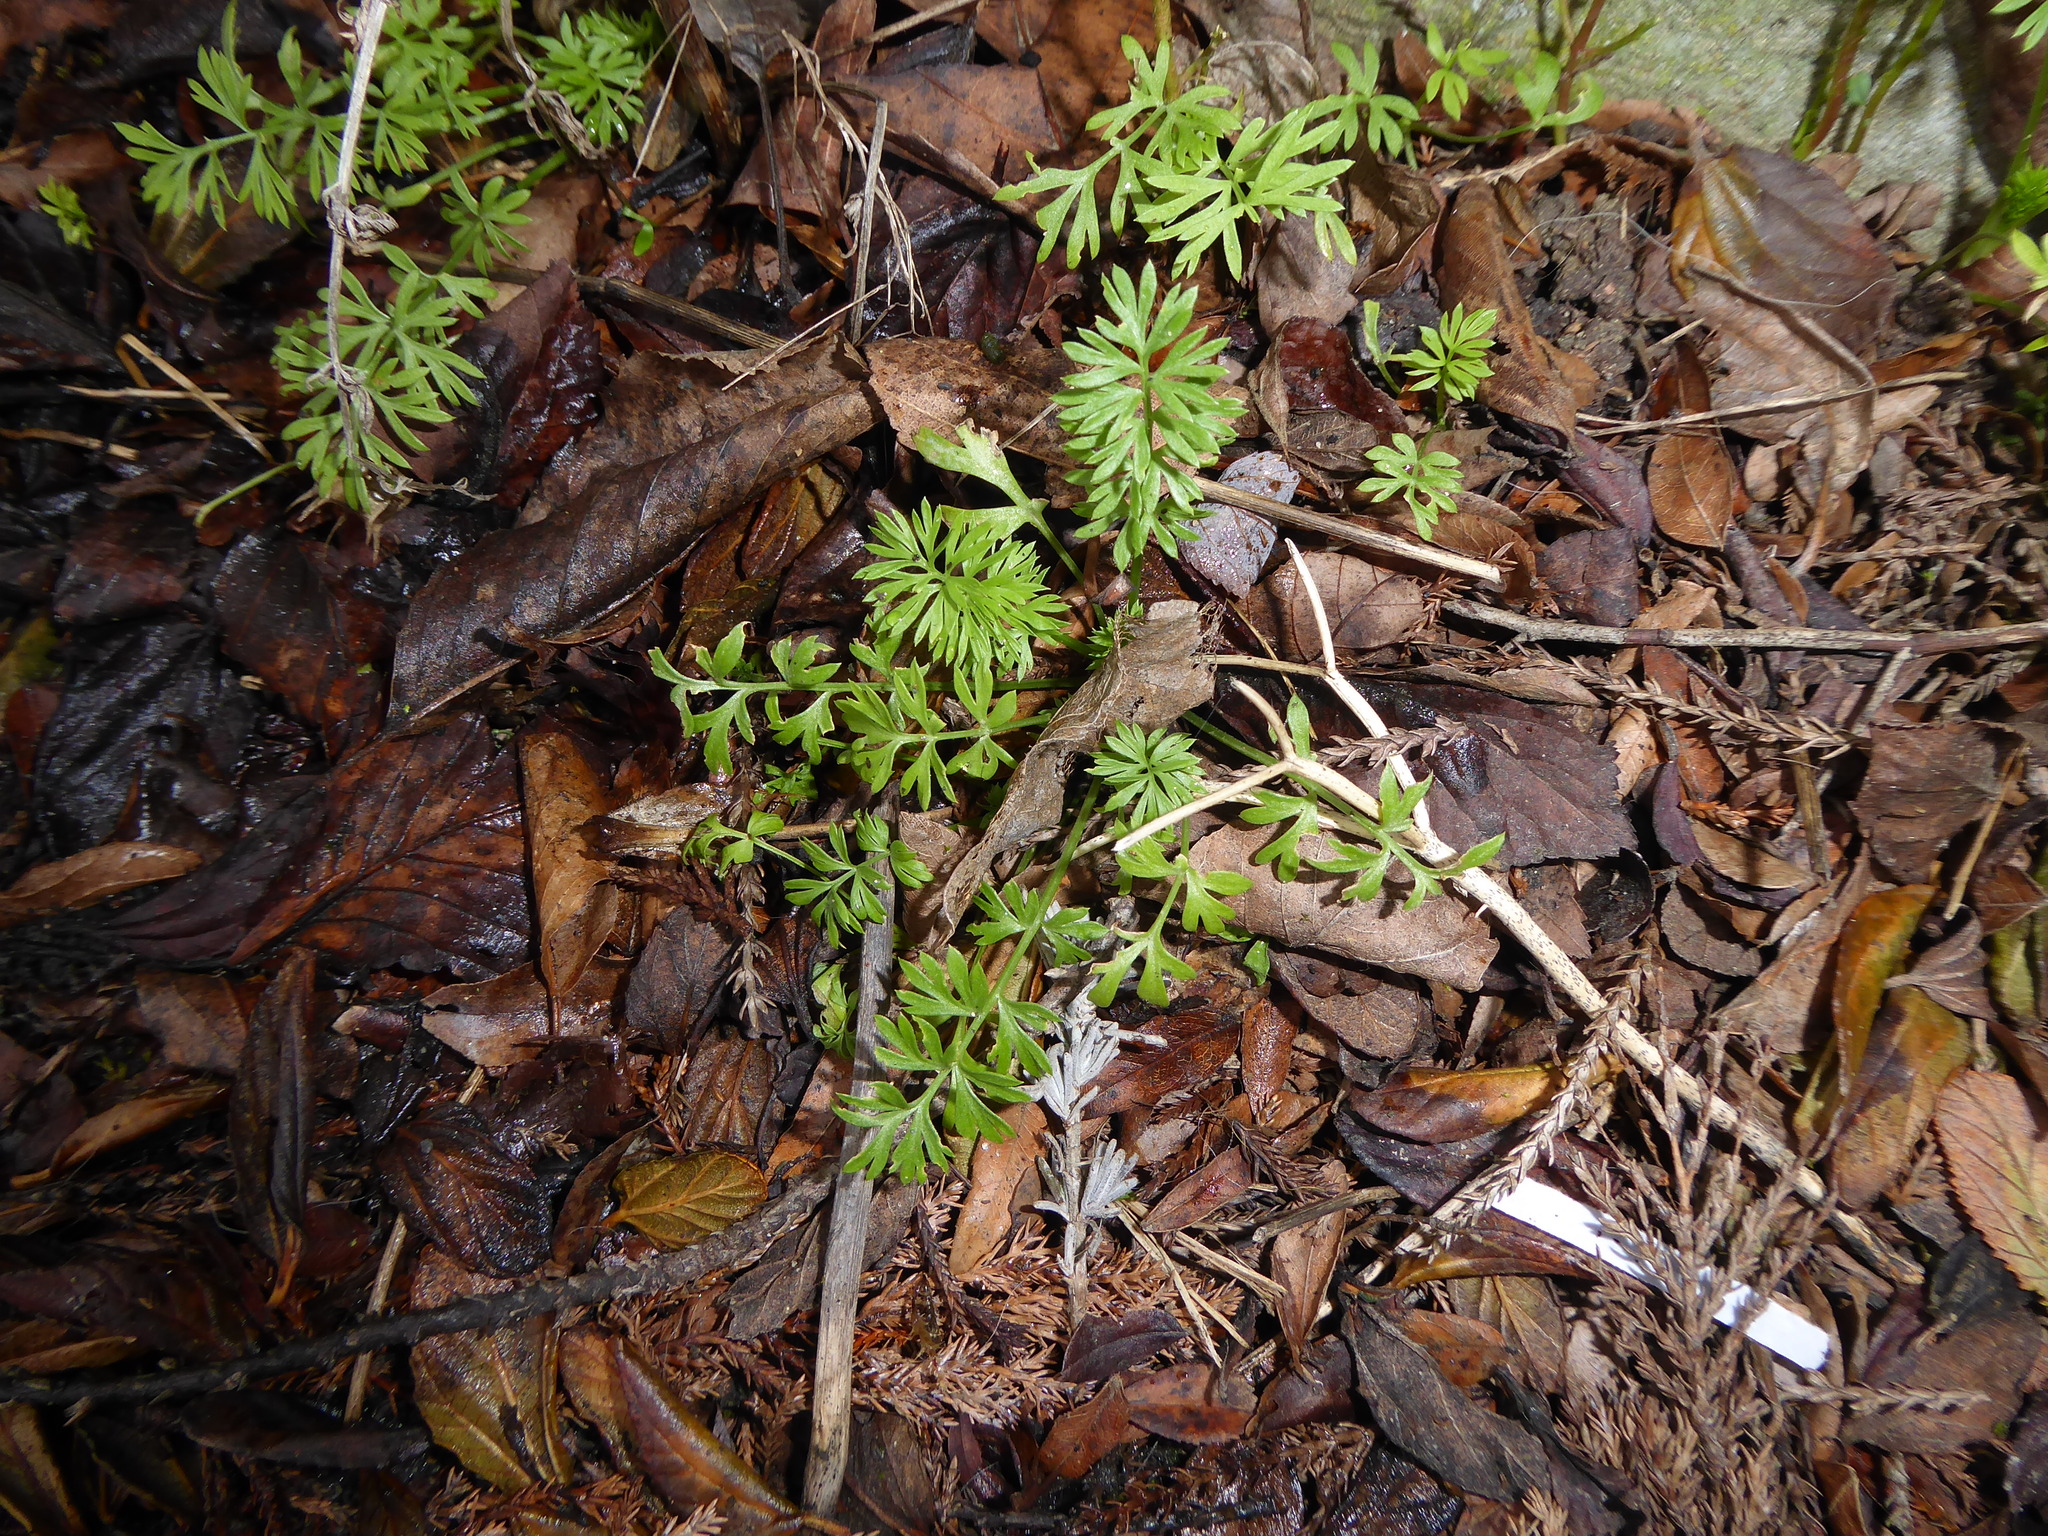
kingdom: Plantae
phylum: Tracheophyta
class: Magnoliopsida
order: Ranunculales
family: Ranunculaceae
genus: Nigella
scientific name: Nigella damascena
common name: Love-in-a-mist
